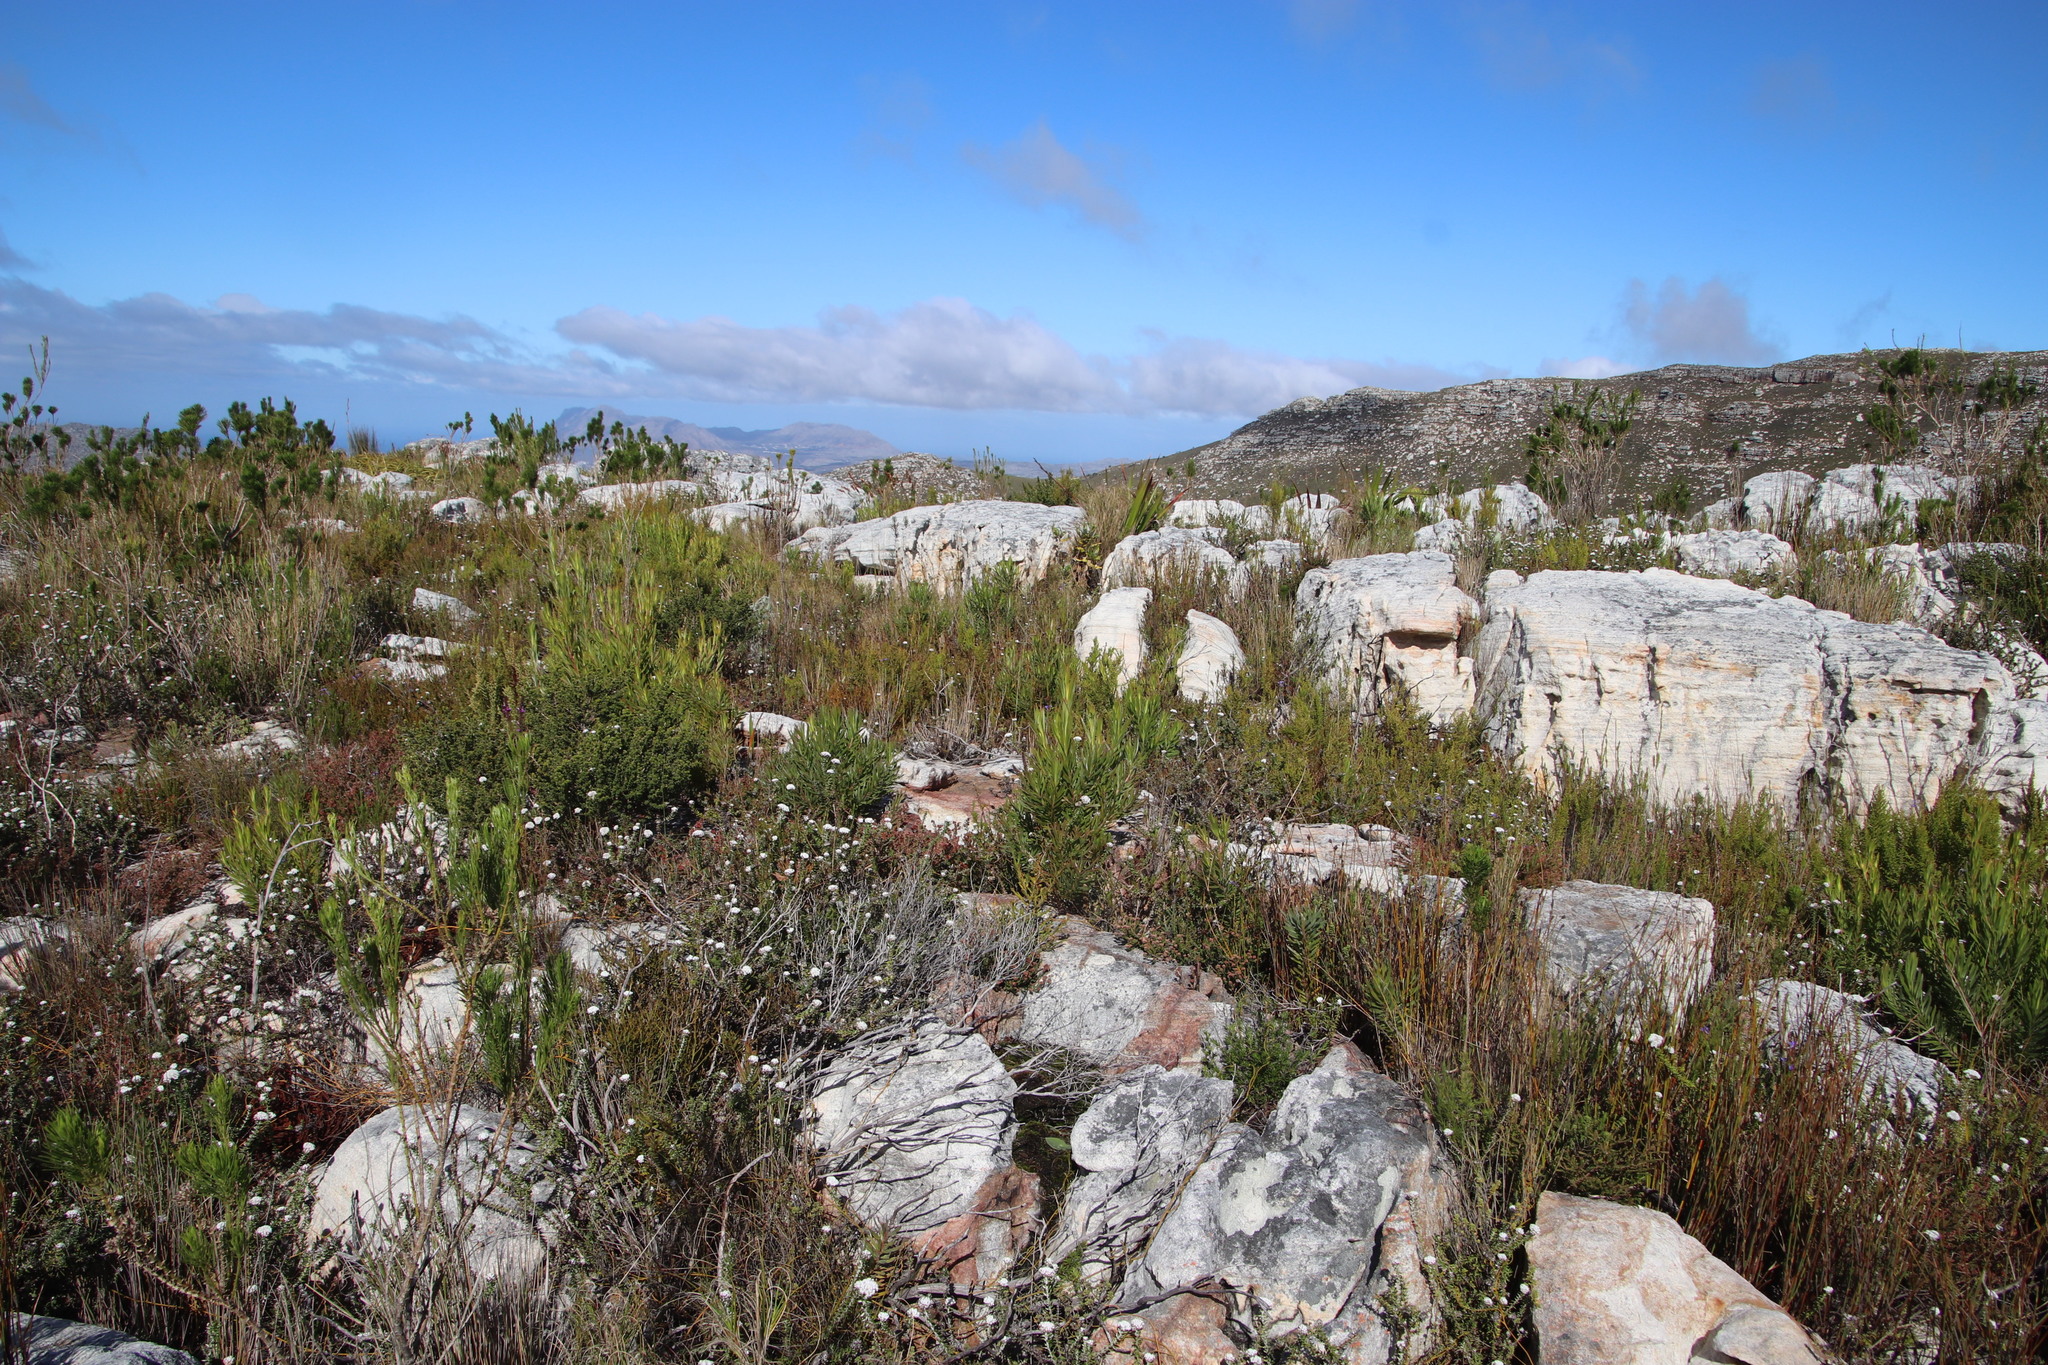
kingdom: Plantae
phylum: Tracheophyta
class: Magnoliopsida
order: Proteales
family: Proteaceae
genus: Leucadendron
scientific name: Leucadendron xanthoconus
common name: Sickle-leaf conebush
